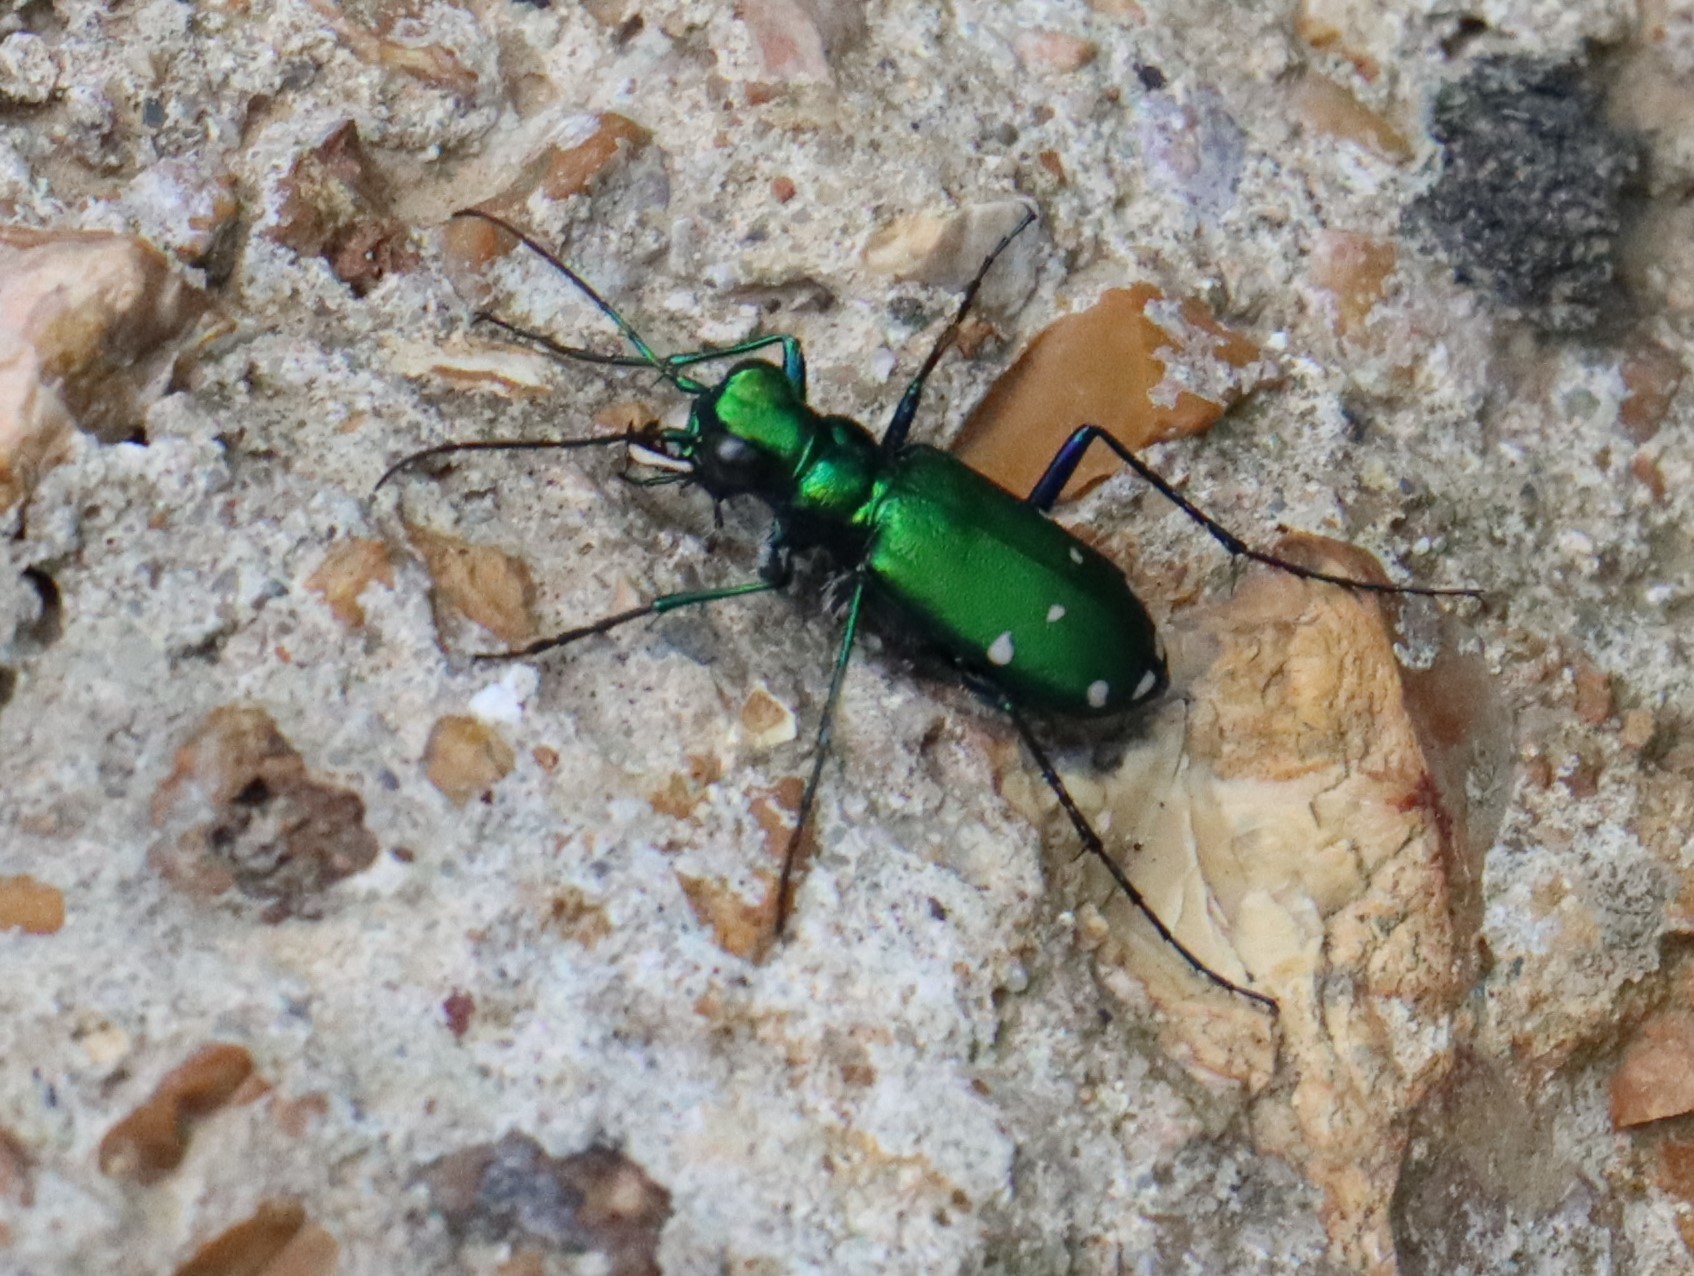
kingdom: Animalia
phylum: Arthropoda
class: Insecta
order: Coleoptera
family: Carabidae
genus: Cicindela
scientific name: Cicindela sexguttata
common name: Six-spotted tiger beetle
